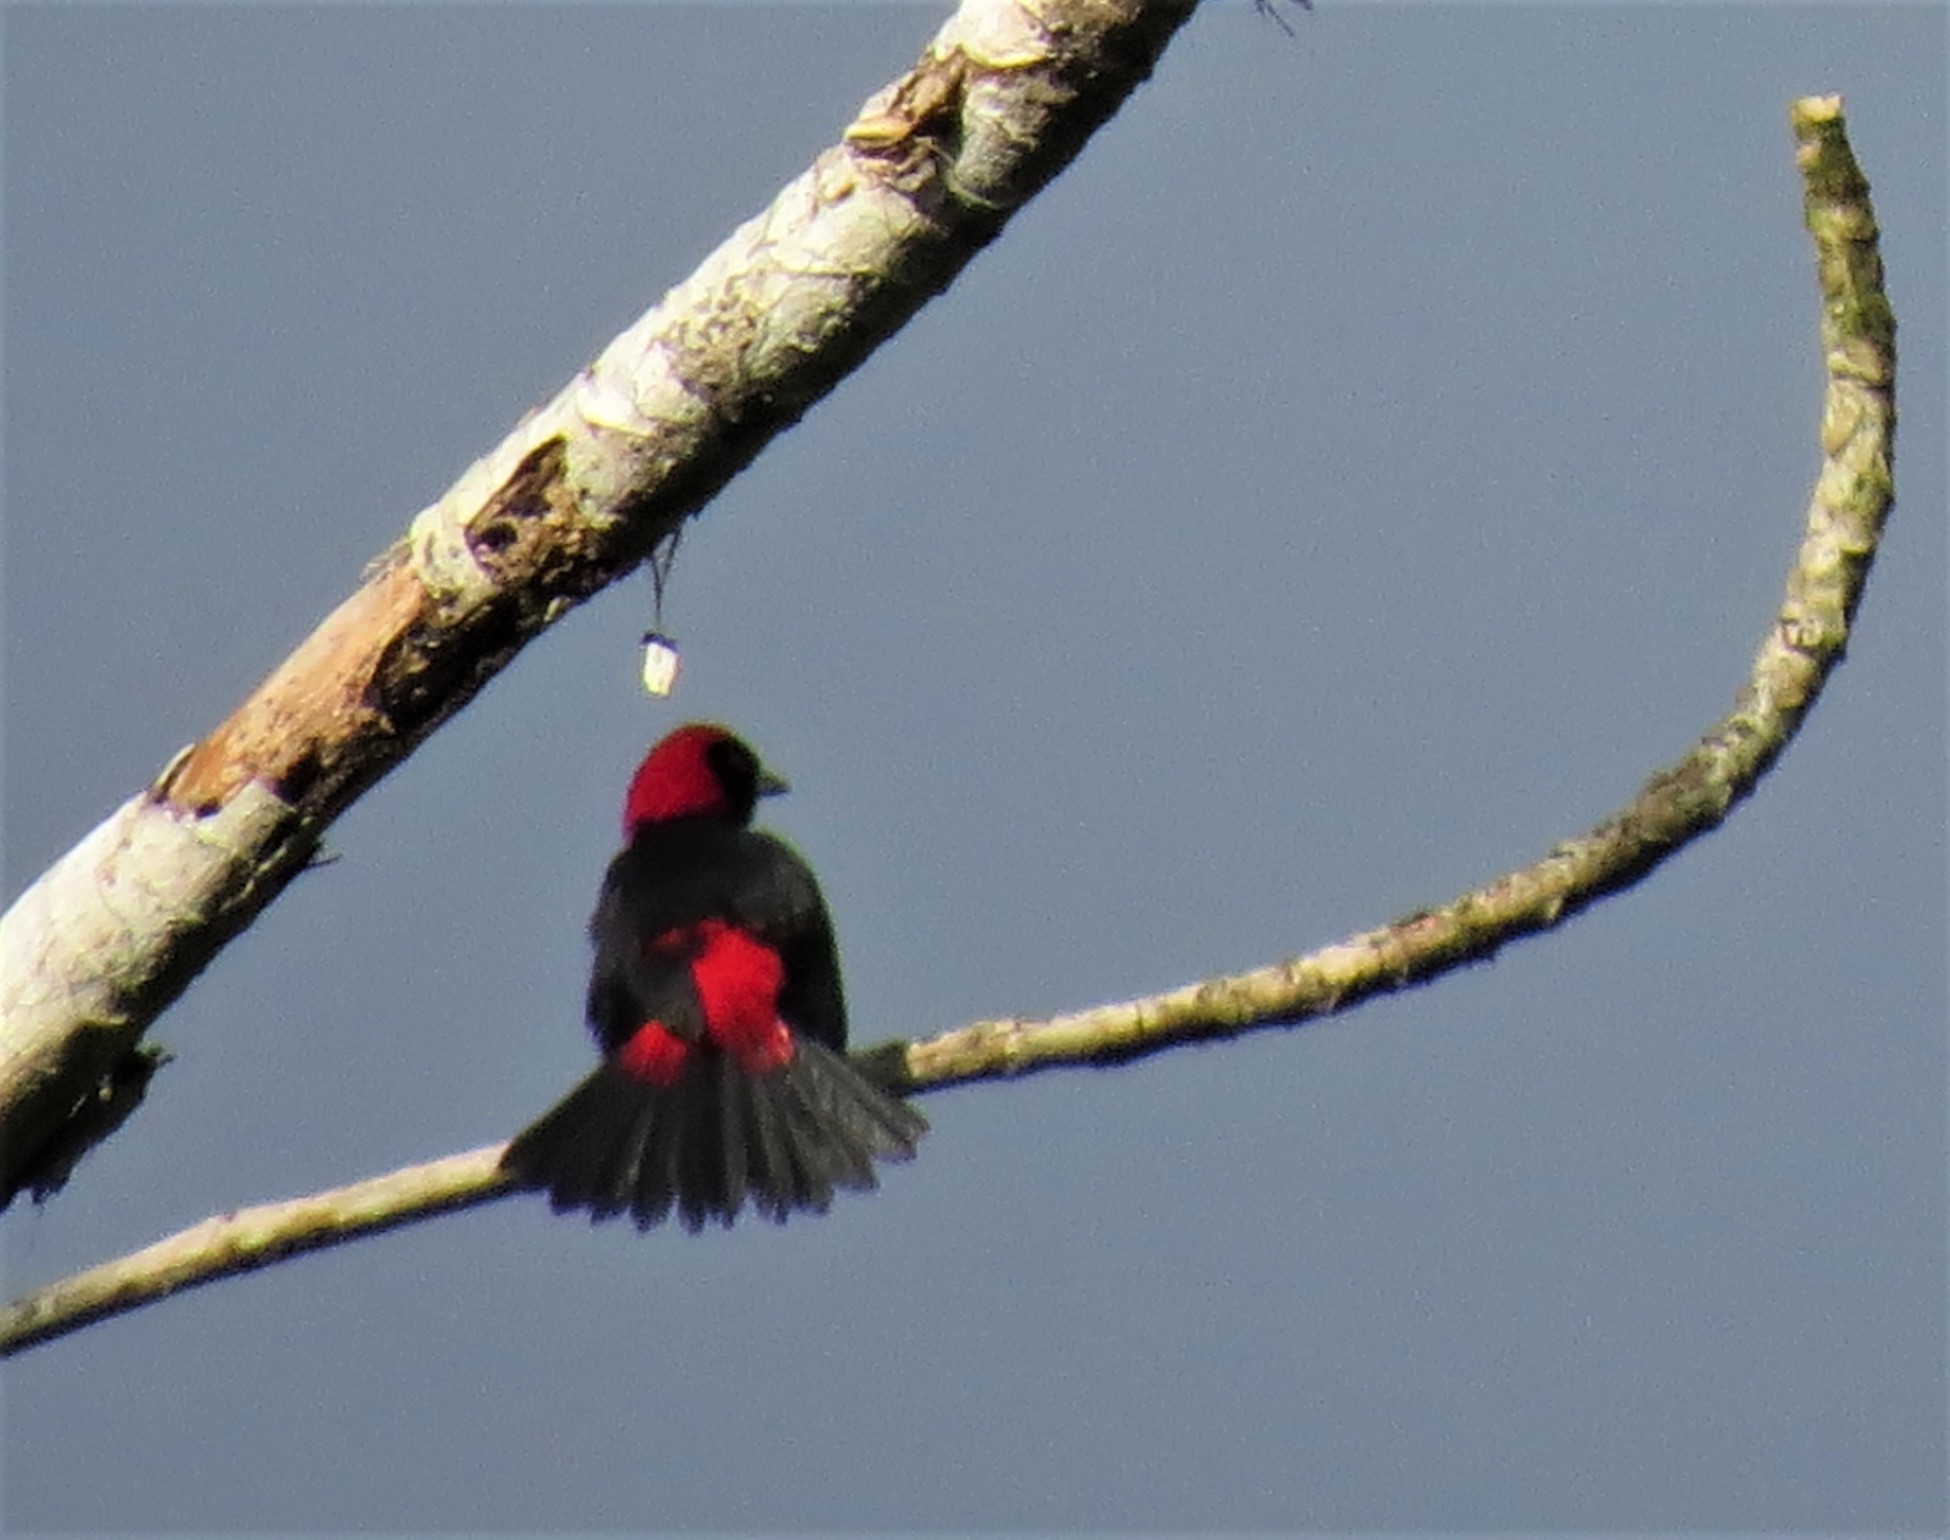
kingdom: Animalia
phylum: Chordata
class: Aves
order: Passeriformes
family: Thraupidae
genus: Ramphocelus
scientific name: Ramphocelus sanguinolentus
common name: Crimson-collared tanager
